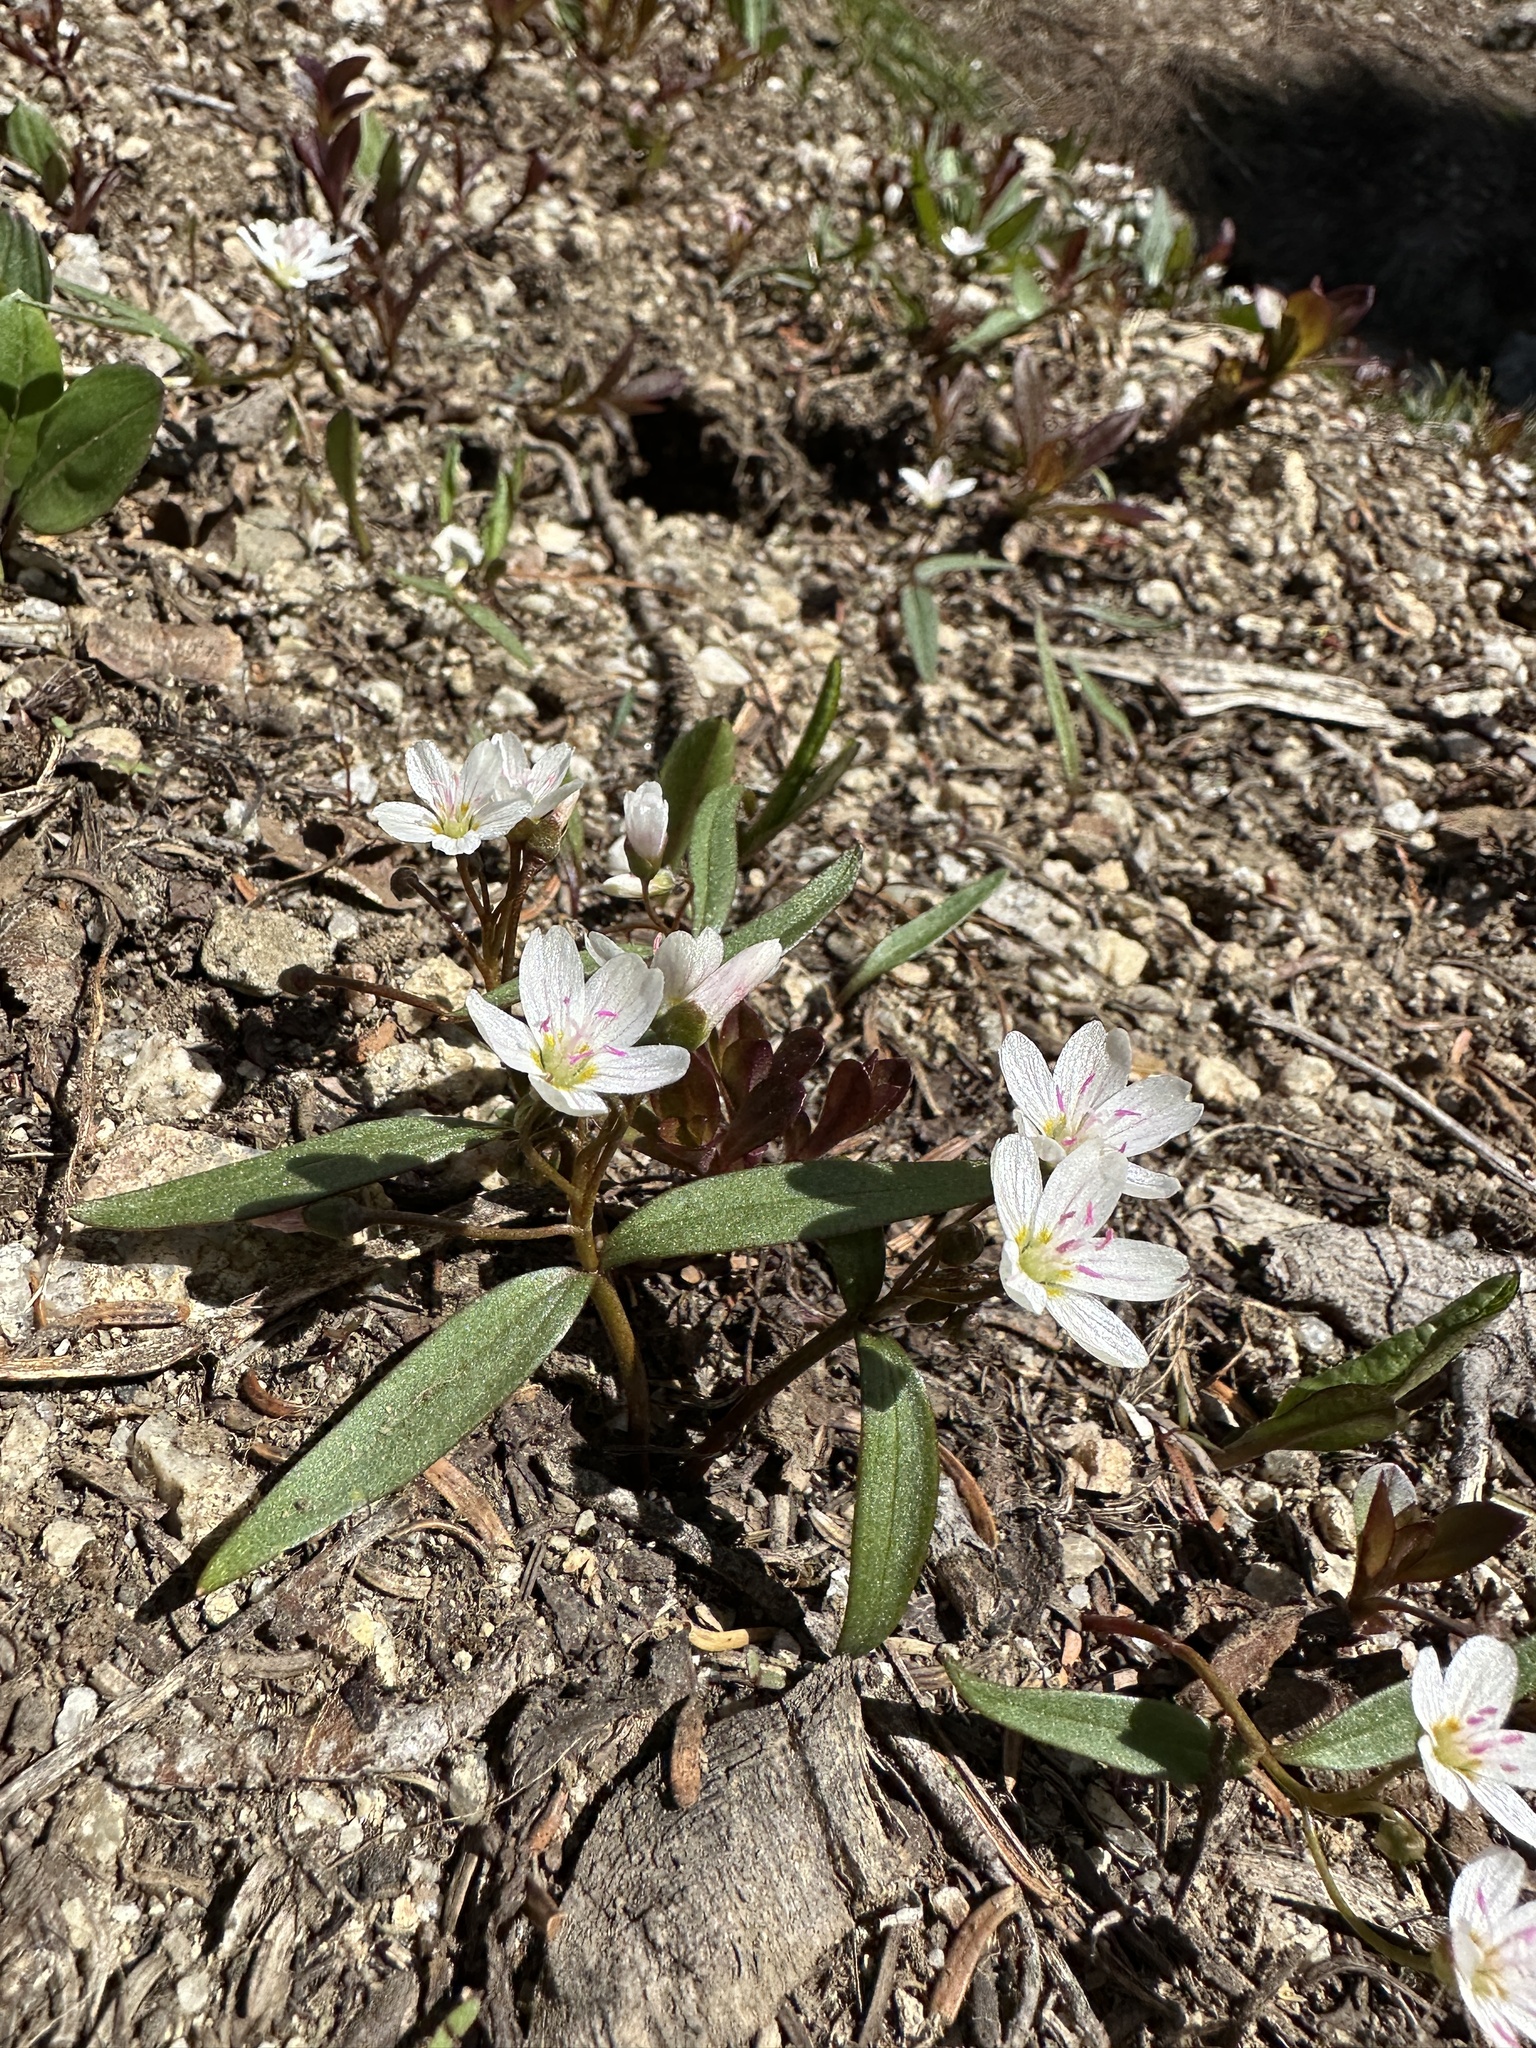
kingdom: Plantae
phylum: Tracheophyta
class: Magnoliopsida
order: Caryophyllales
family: Montiaceae
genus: Claytonia
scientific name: Claytonia lanceolata
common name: Western spring-beauty
